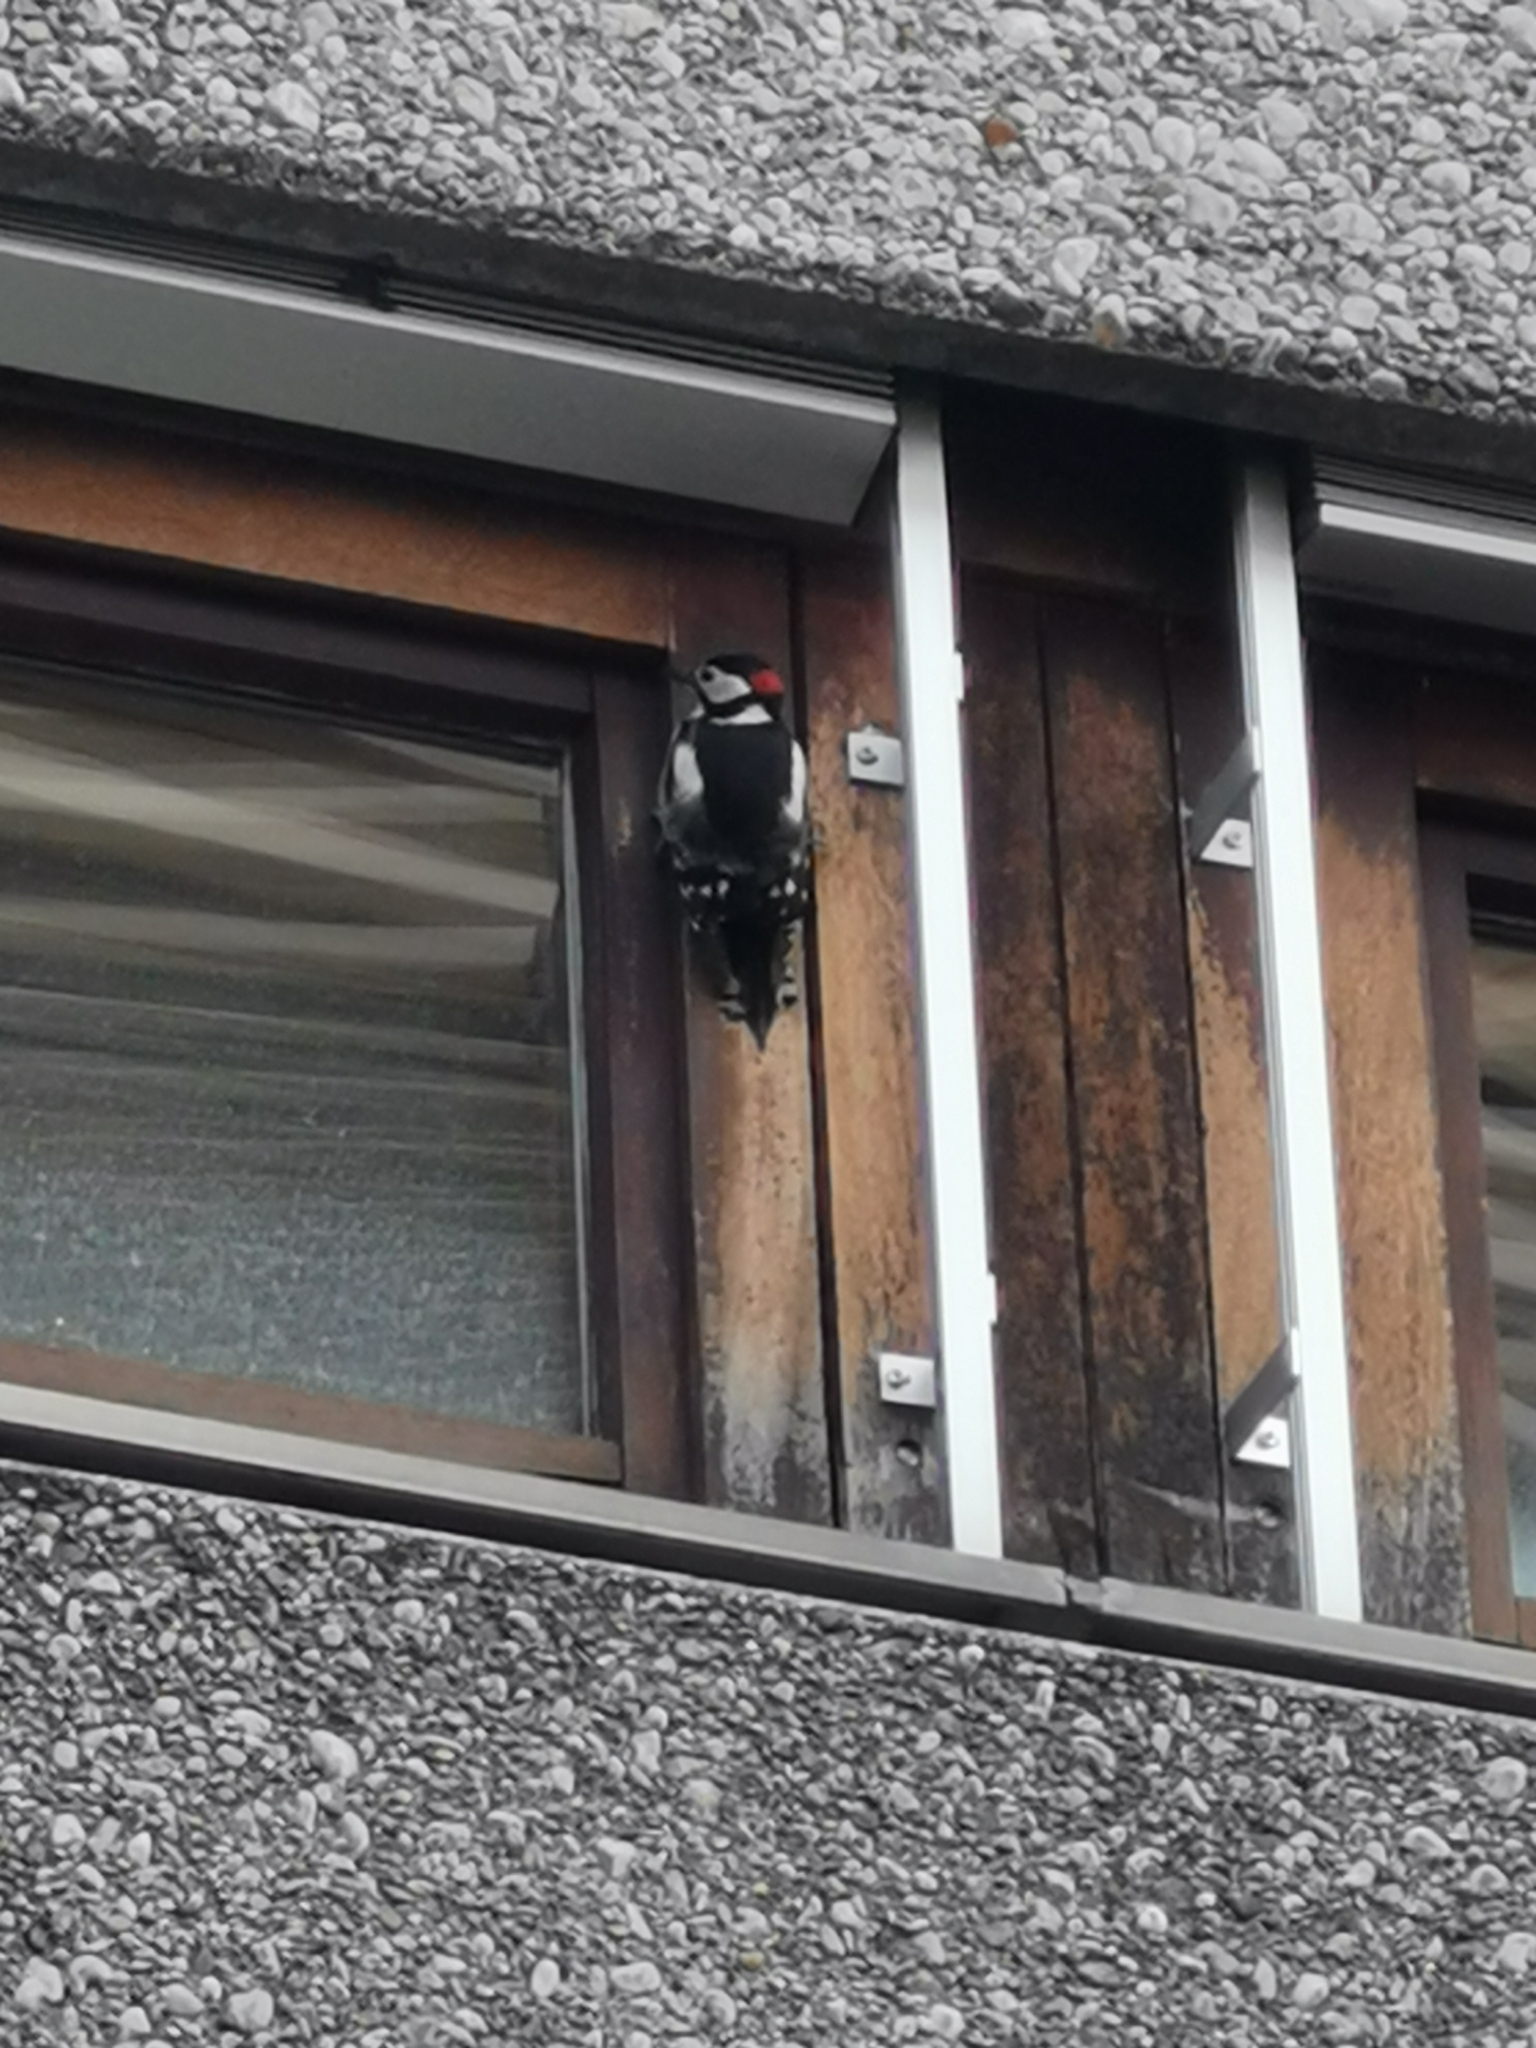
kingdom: Animalia
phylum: Chordata
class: Aves
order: Piciformes
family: Picidae
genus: Dendrocopos
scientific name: Dendrocopos major
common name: Great spotted woodpecker
